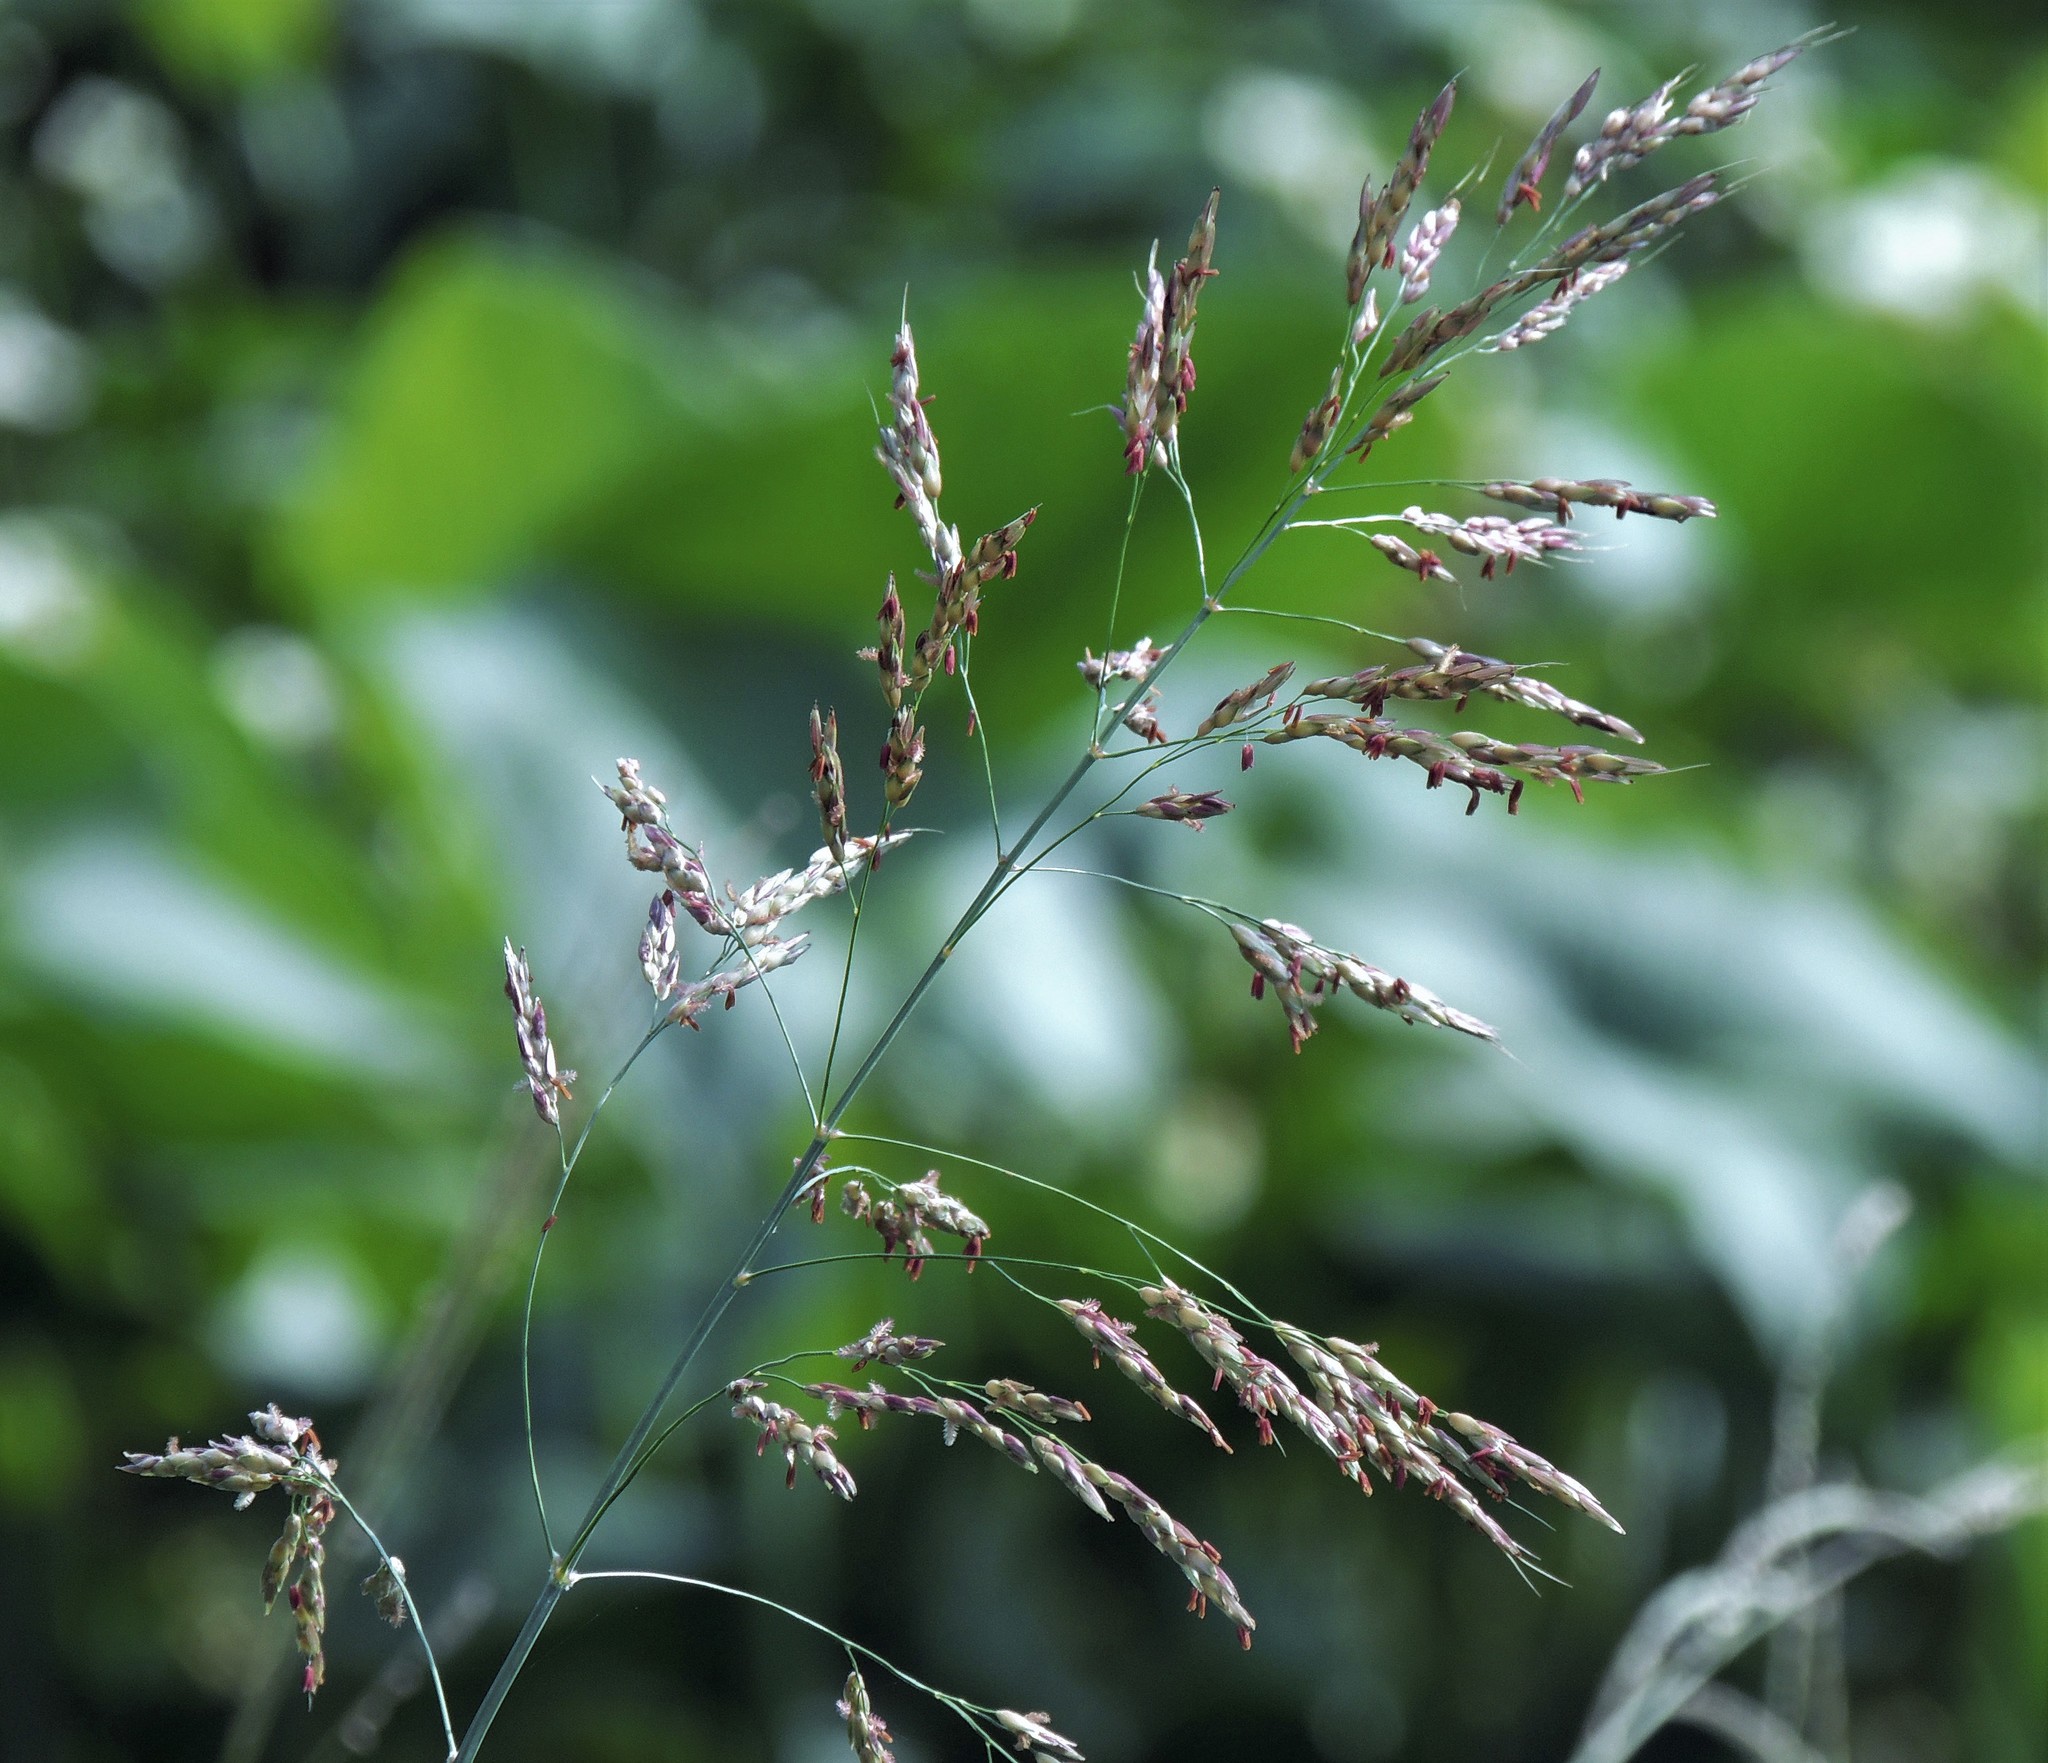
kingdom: Plantae
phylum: Tracheophyta
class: Liliopsida
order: Poales
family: Poaceae
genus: Sorghum
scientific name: Sorghum halepense
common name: Johnson-grass
